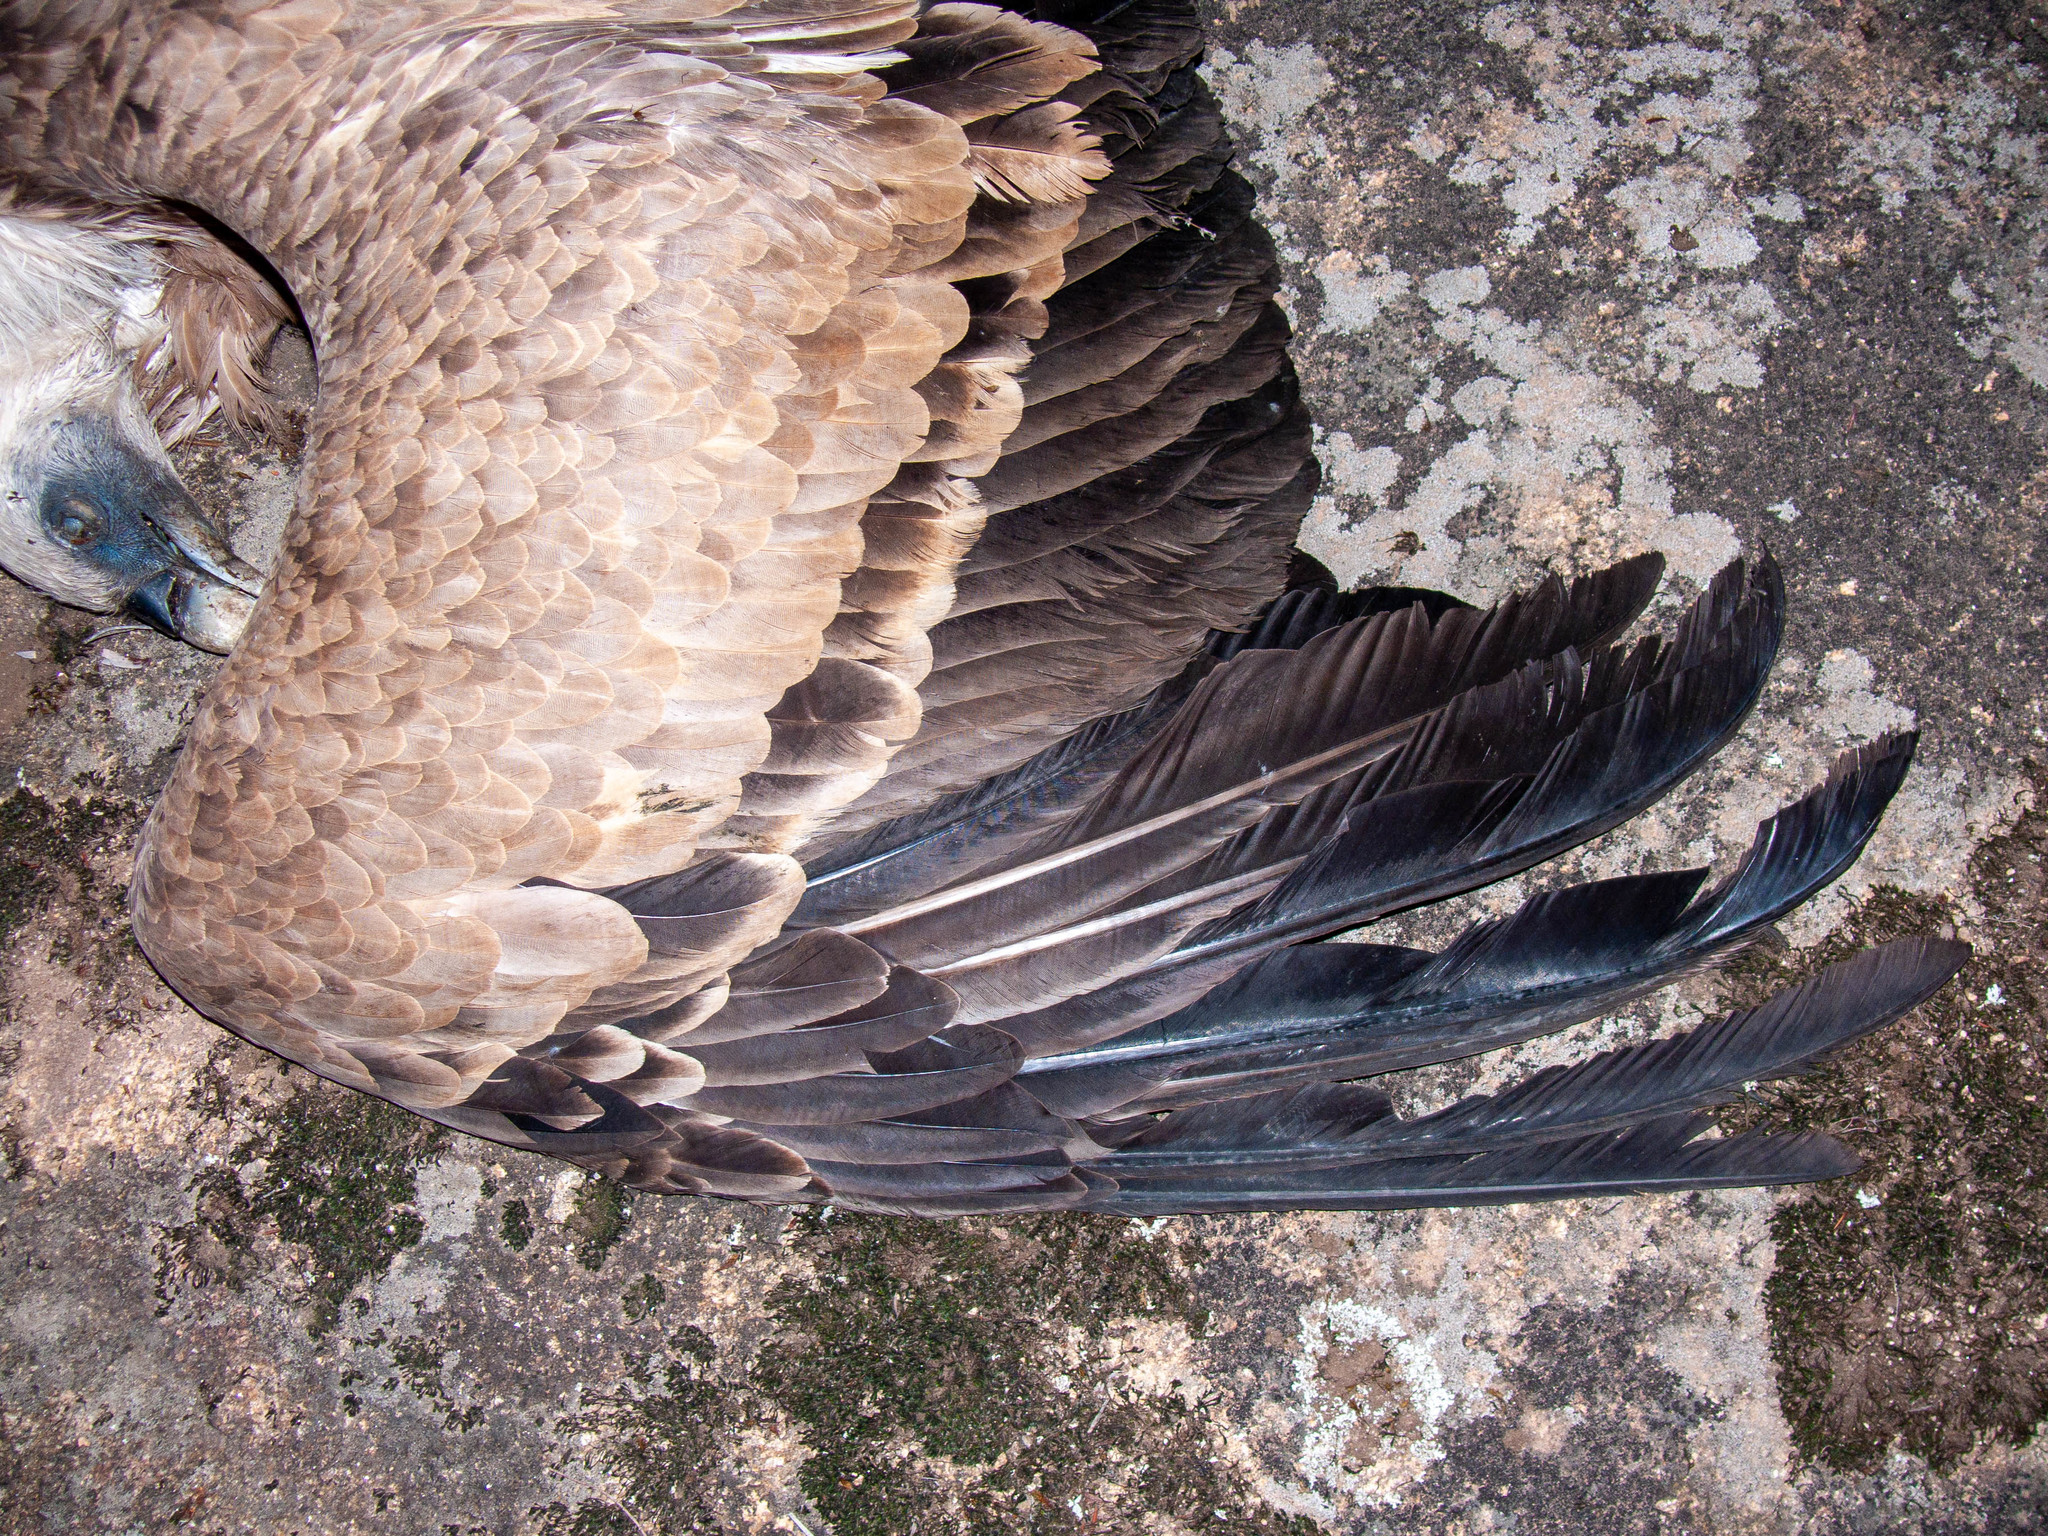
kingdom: Animalia
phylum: Chordata
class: Aves
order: Accipitriformes
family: Accipitridae
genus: Gyps
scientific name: Gyps fulvus
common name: Griffon vulture
